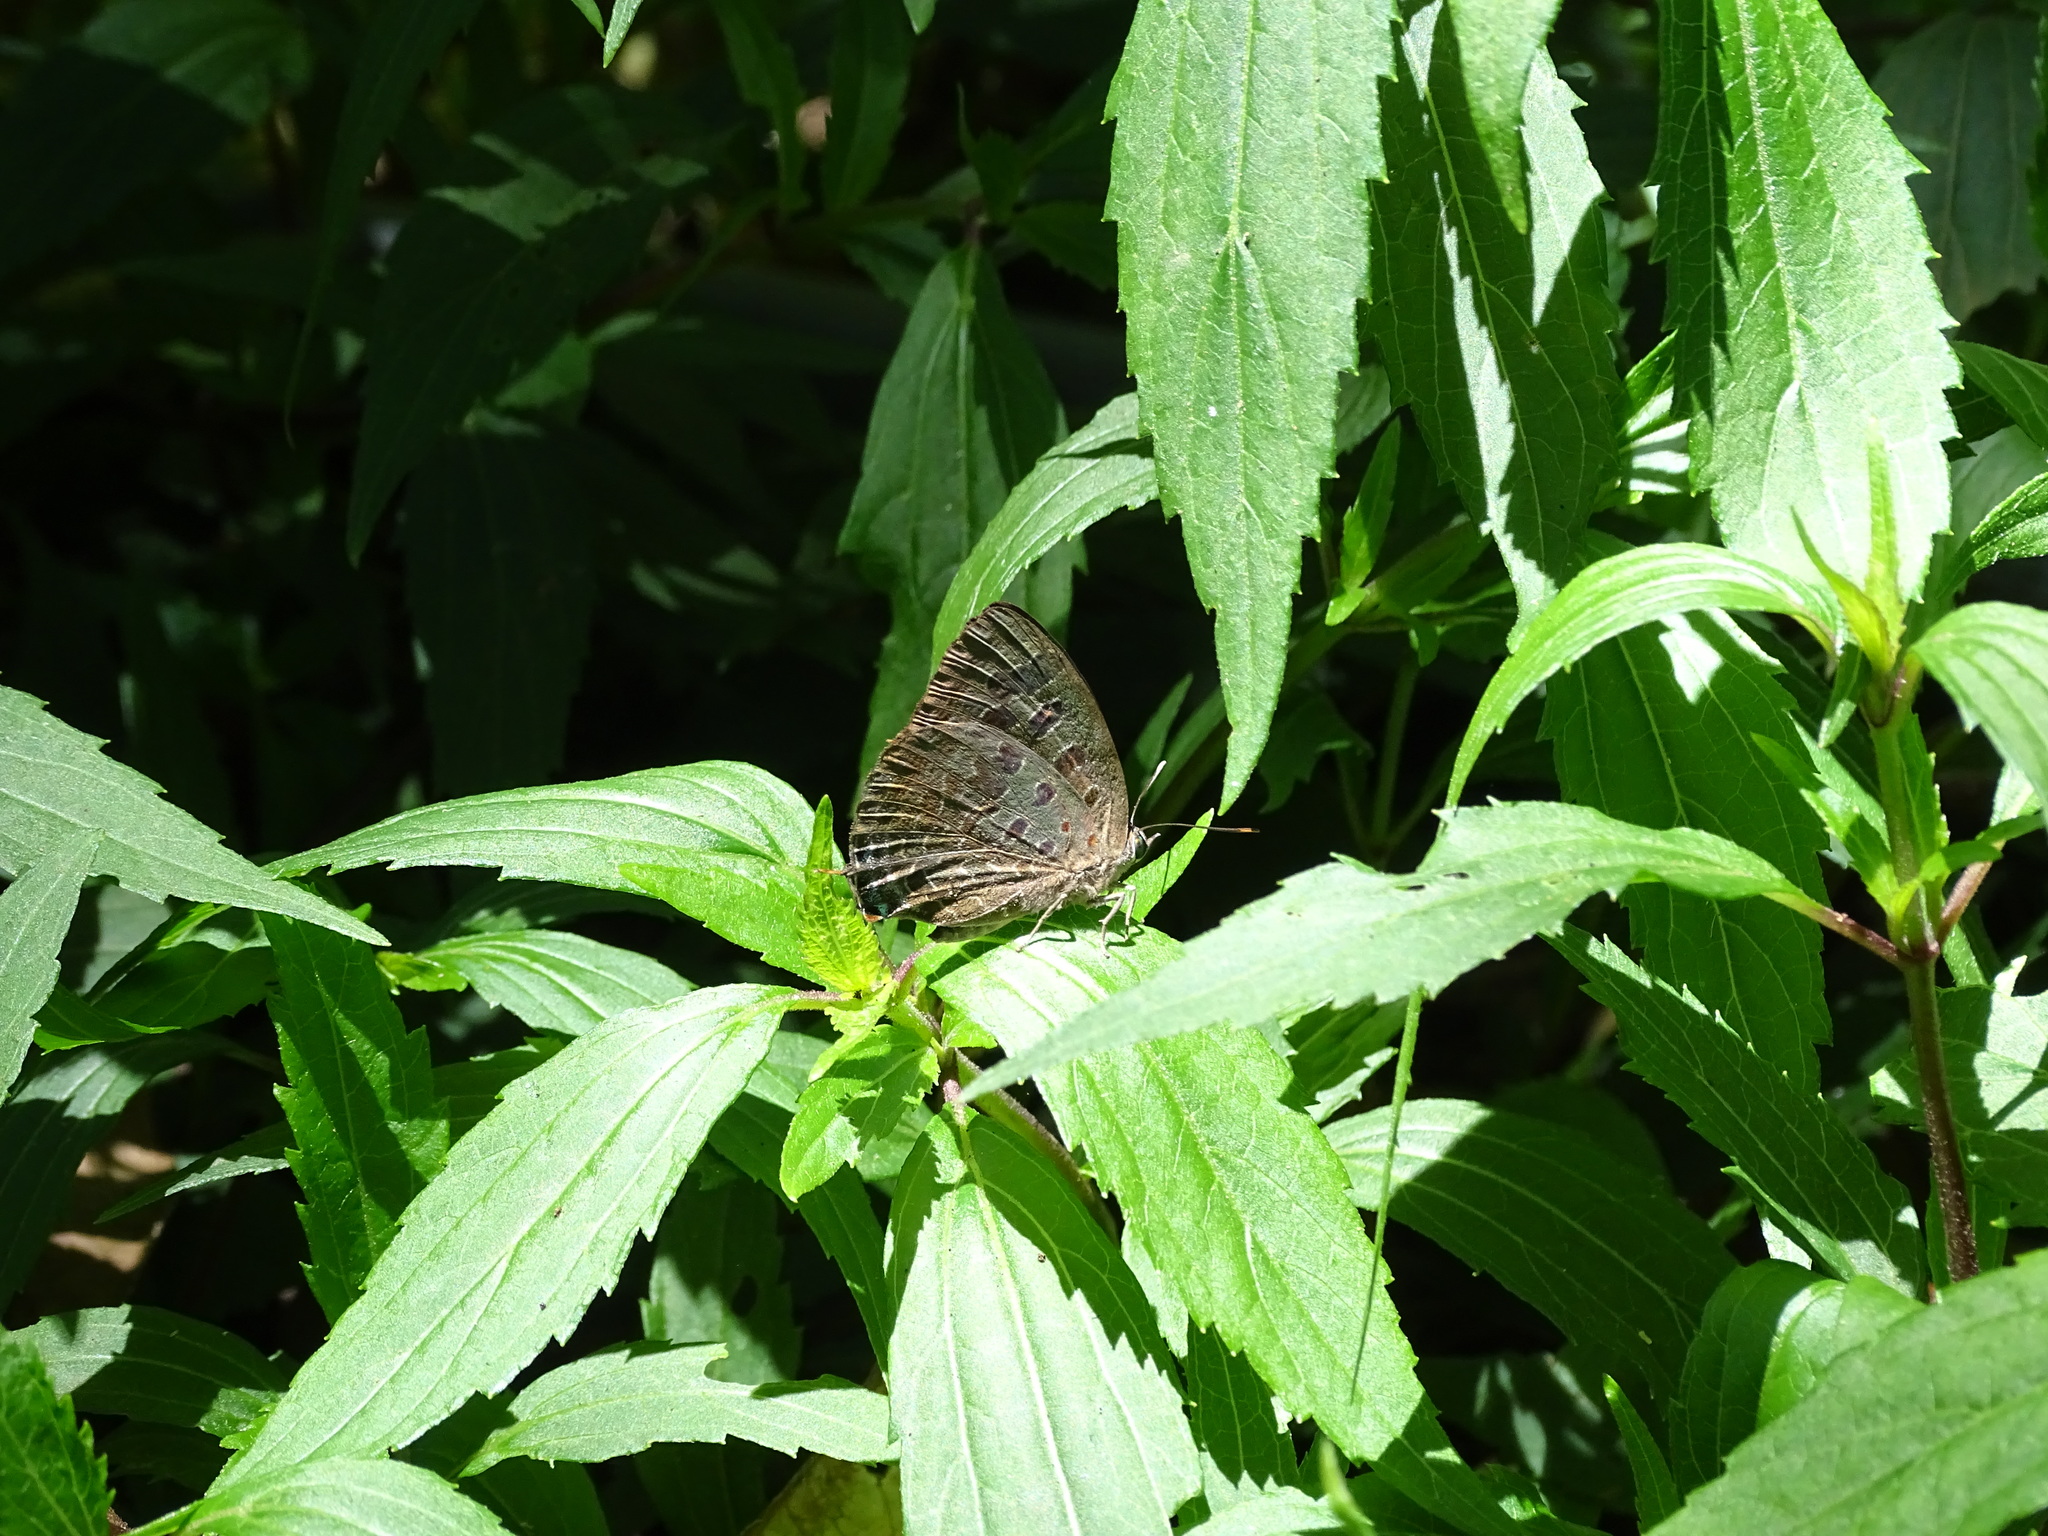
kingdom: Animalia
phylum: Arthropoda
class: Insecta
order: Lepidoptera
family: Lycaenidae
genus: Arhopala
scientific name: Arhopala eumolphus
